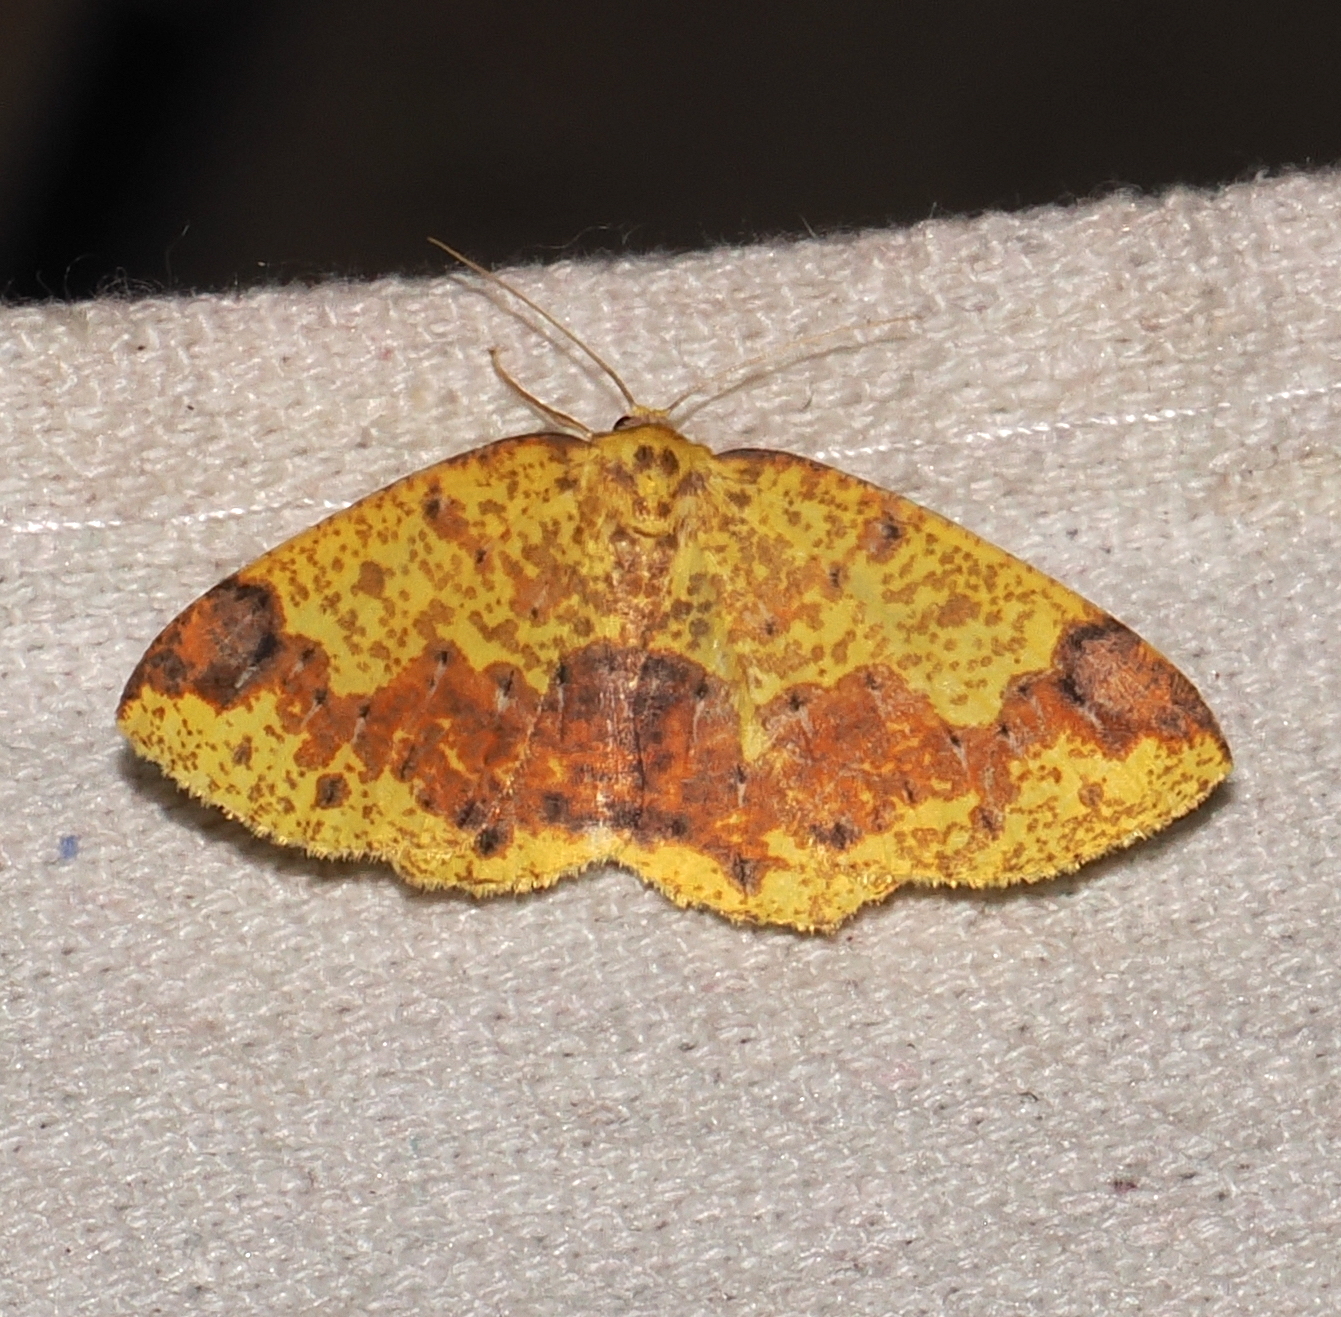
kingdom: Animalia
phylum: Arthropoda
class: Insecta
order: Lepidoptera
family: Geometridae
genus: Melinoides
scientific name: Melinoides fulvitincta
